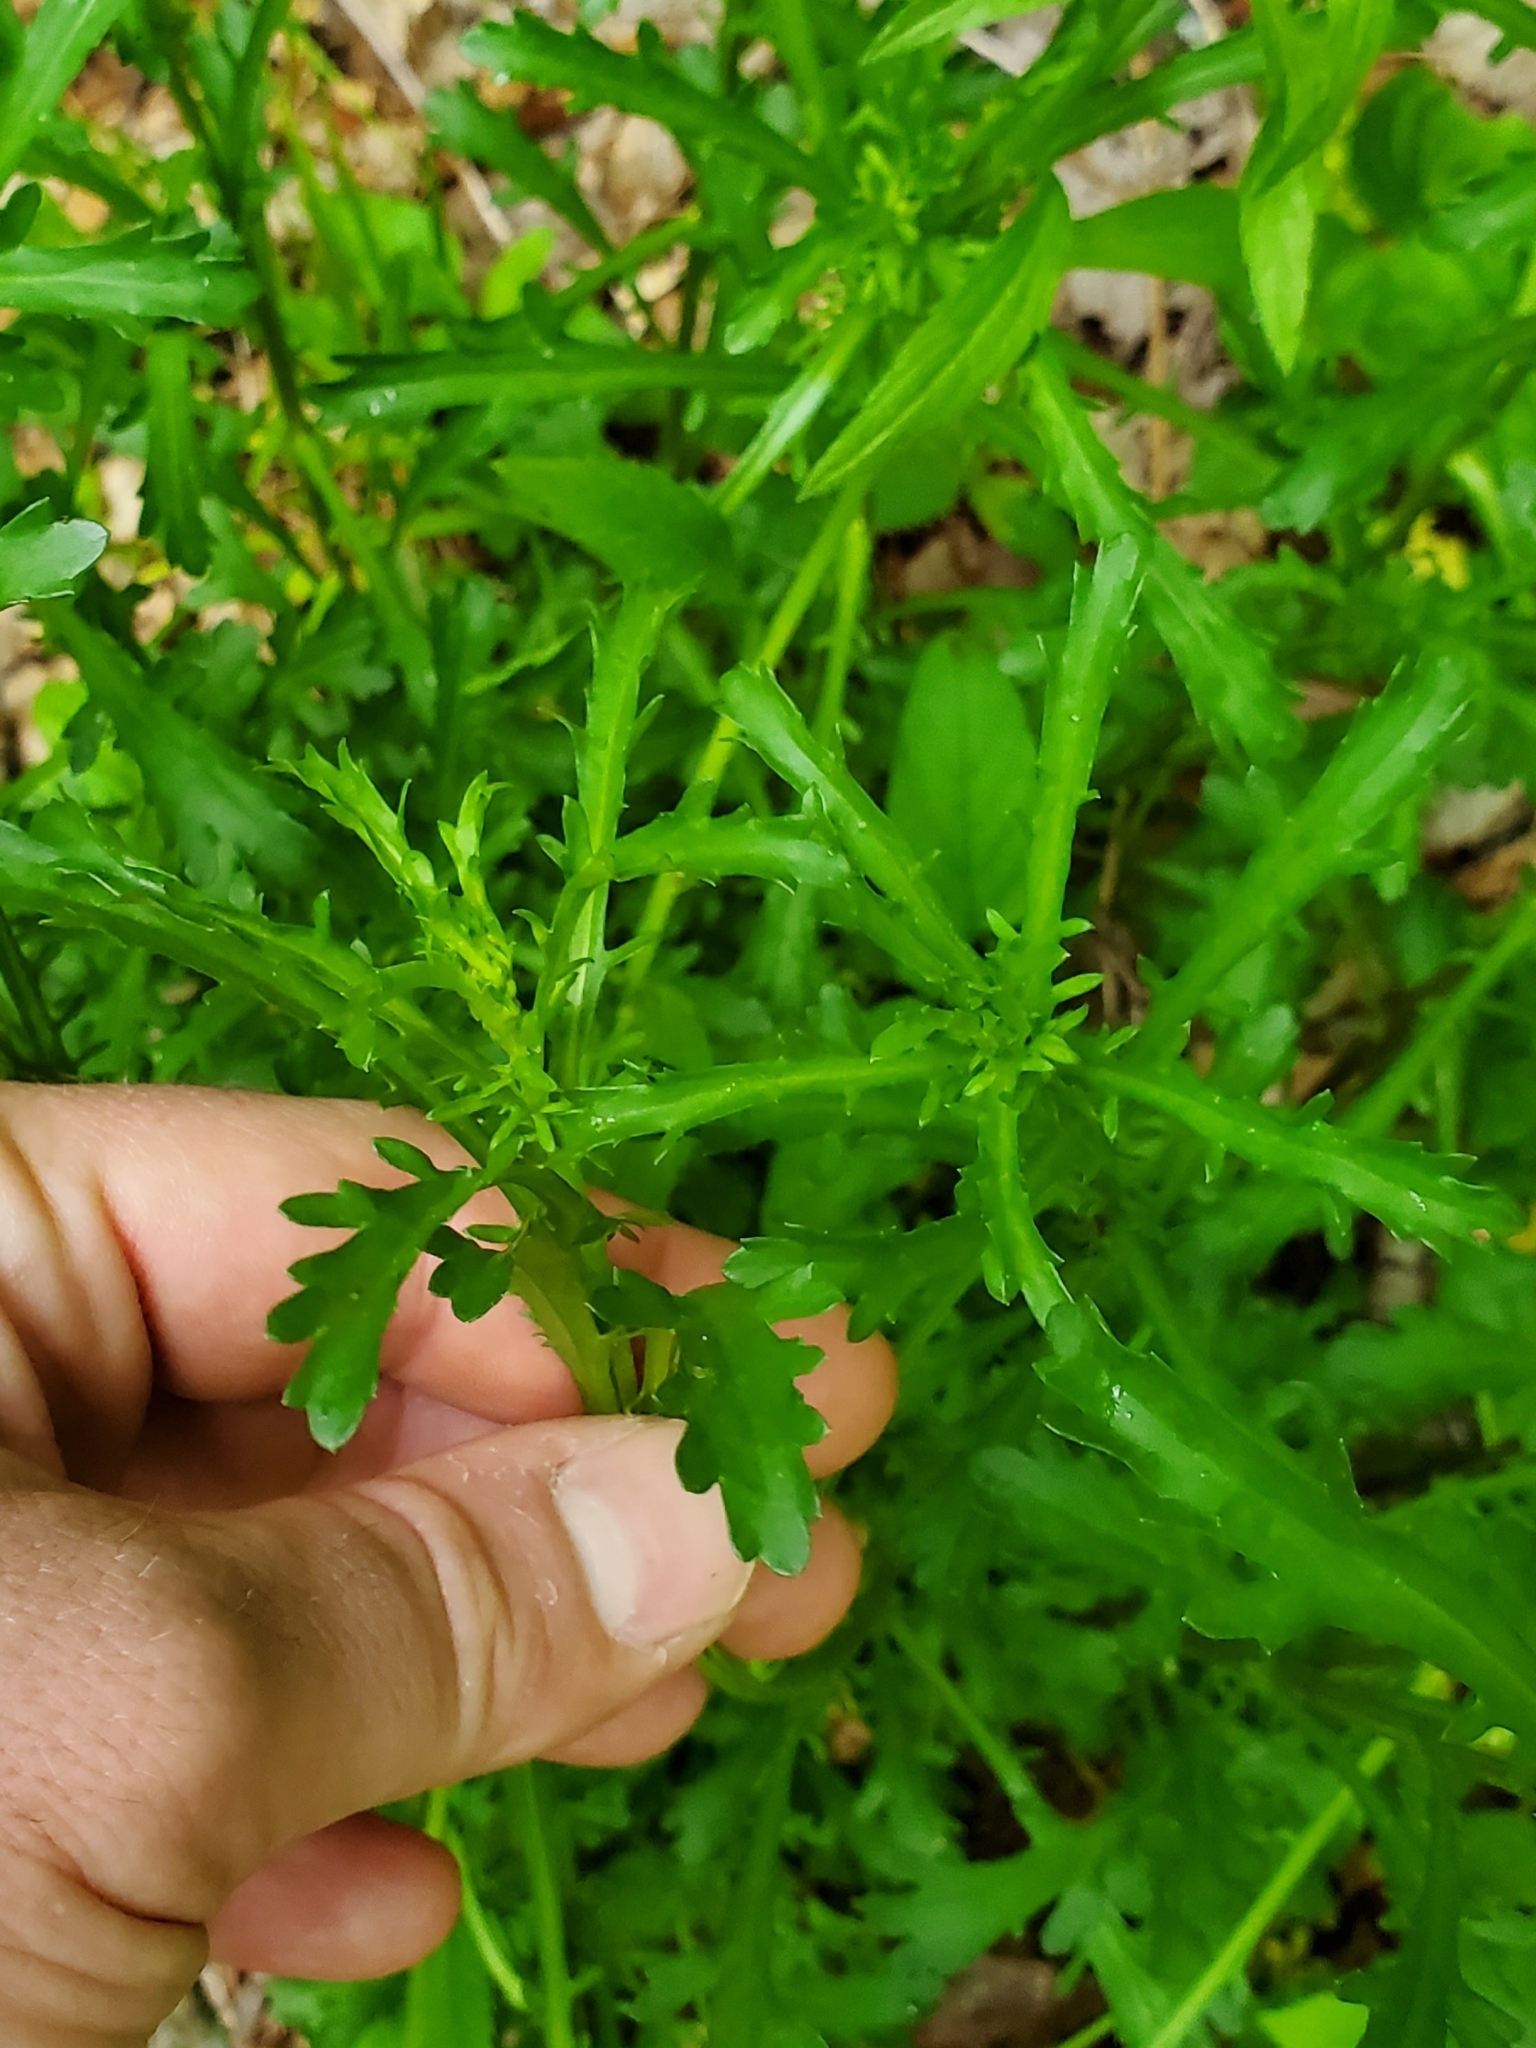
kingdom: Plantae
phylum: Tracheophyta
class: Magnoliopsida
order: Asterales
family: Asteraceae
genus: Leucanthemum
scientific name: Leucanthemum vulgare
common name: Oxeye daisy
